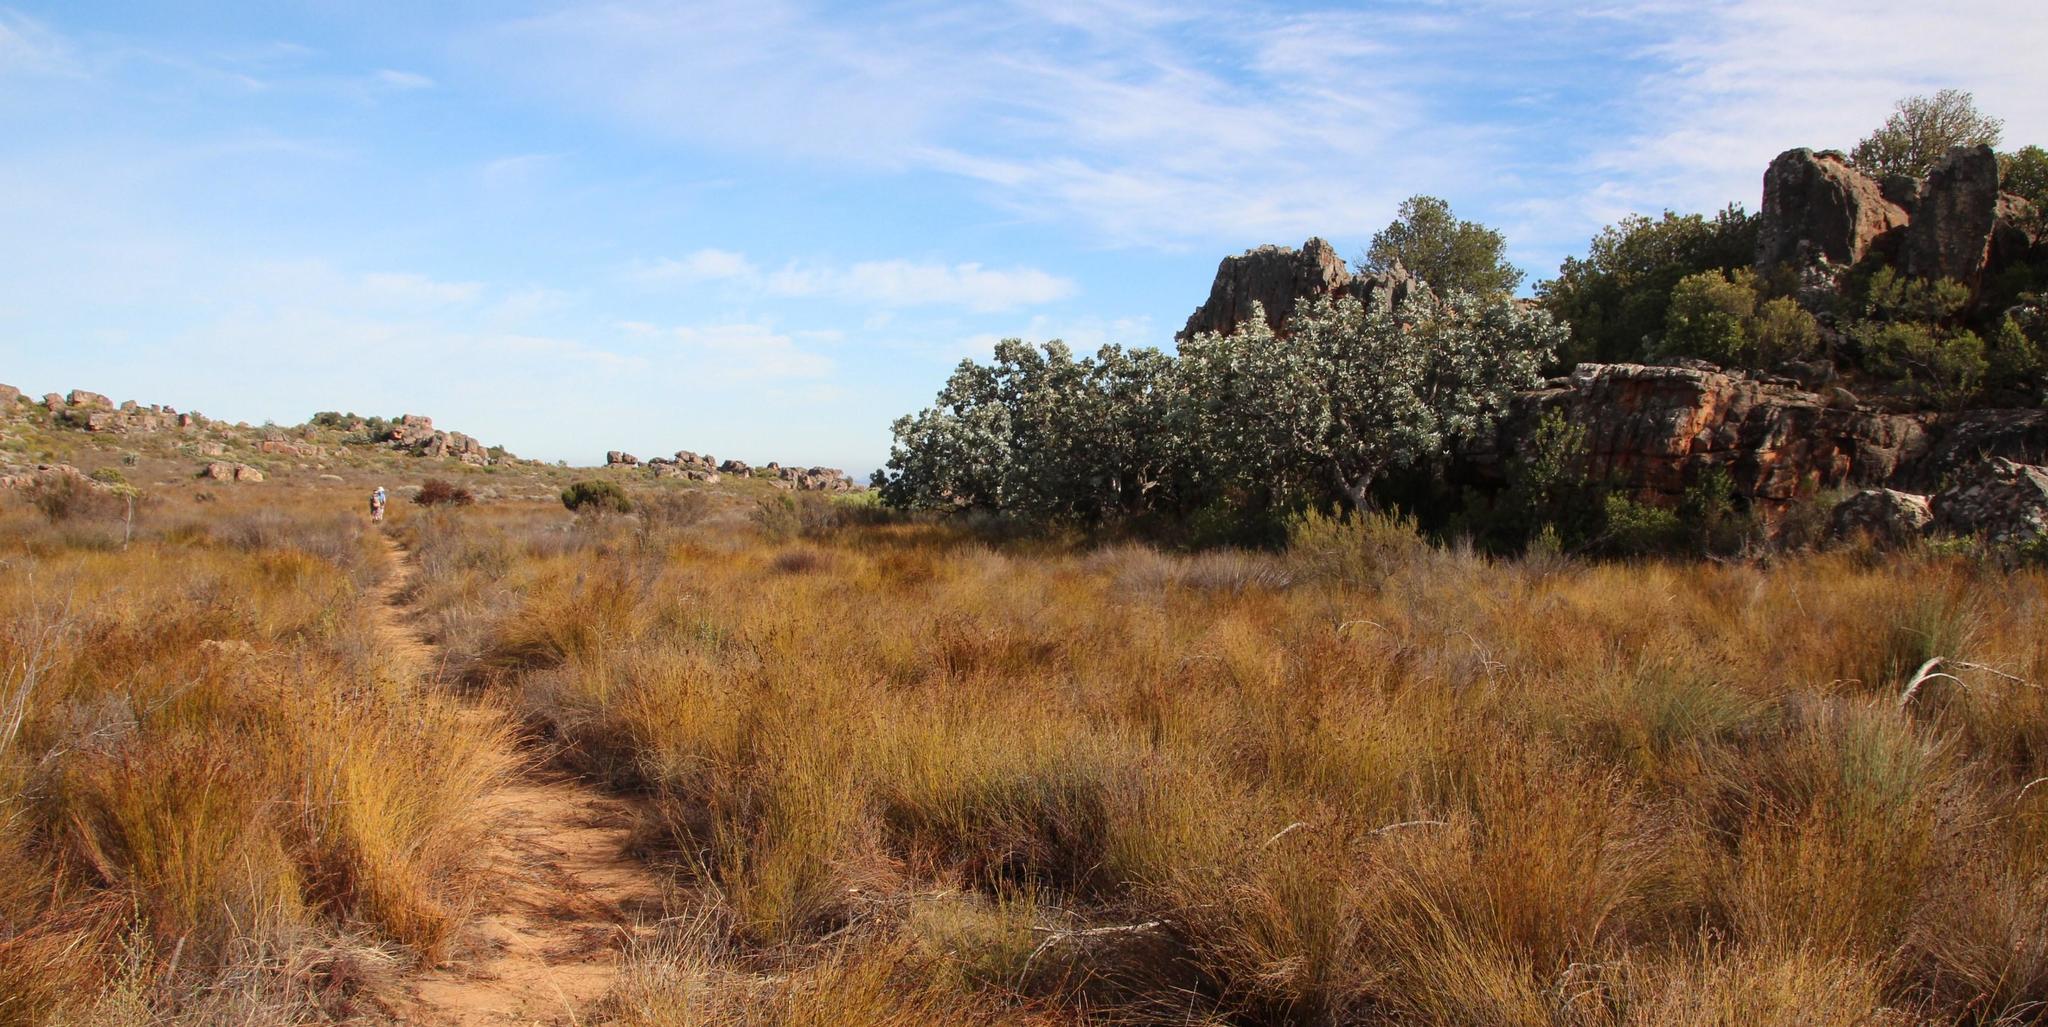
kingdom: Plantae
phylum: Tracheophyta
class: Magnoliopsida
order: Proteales
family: Proteaceae
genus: Protea
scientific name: Protea nitida
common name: Tree protea
